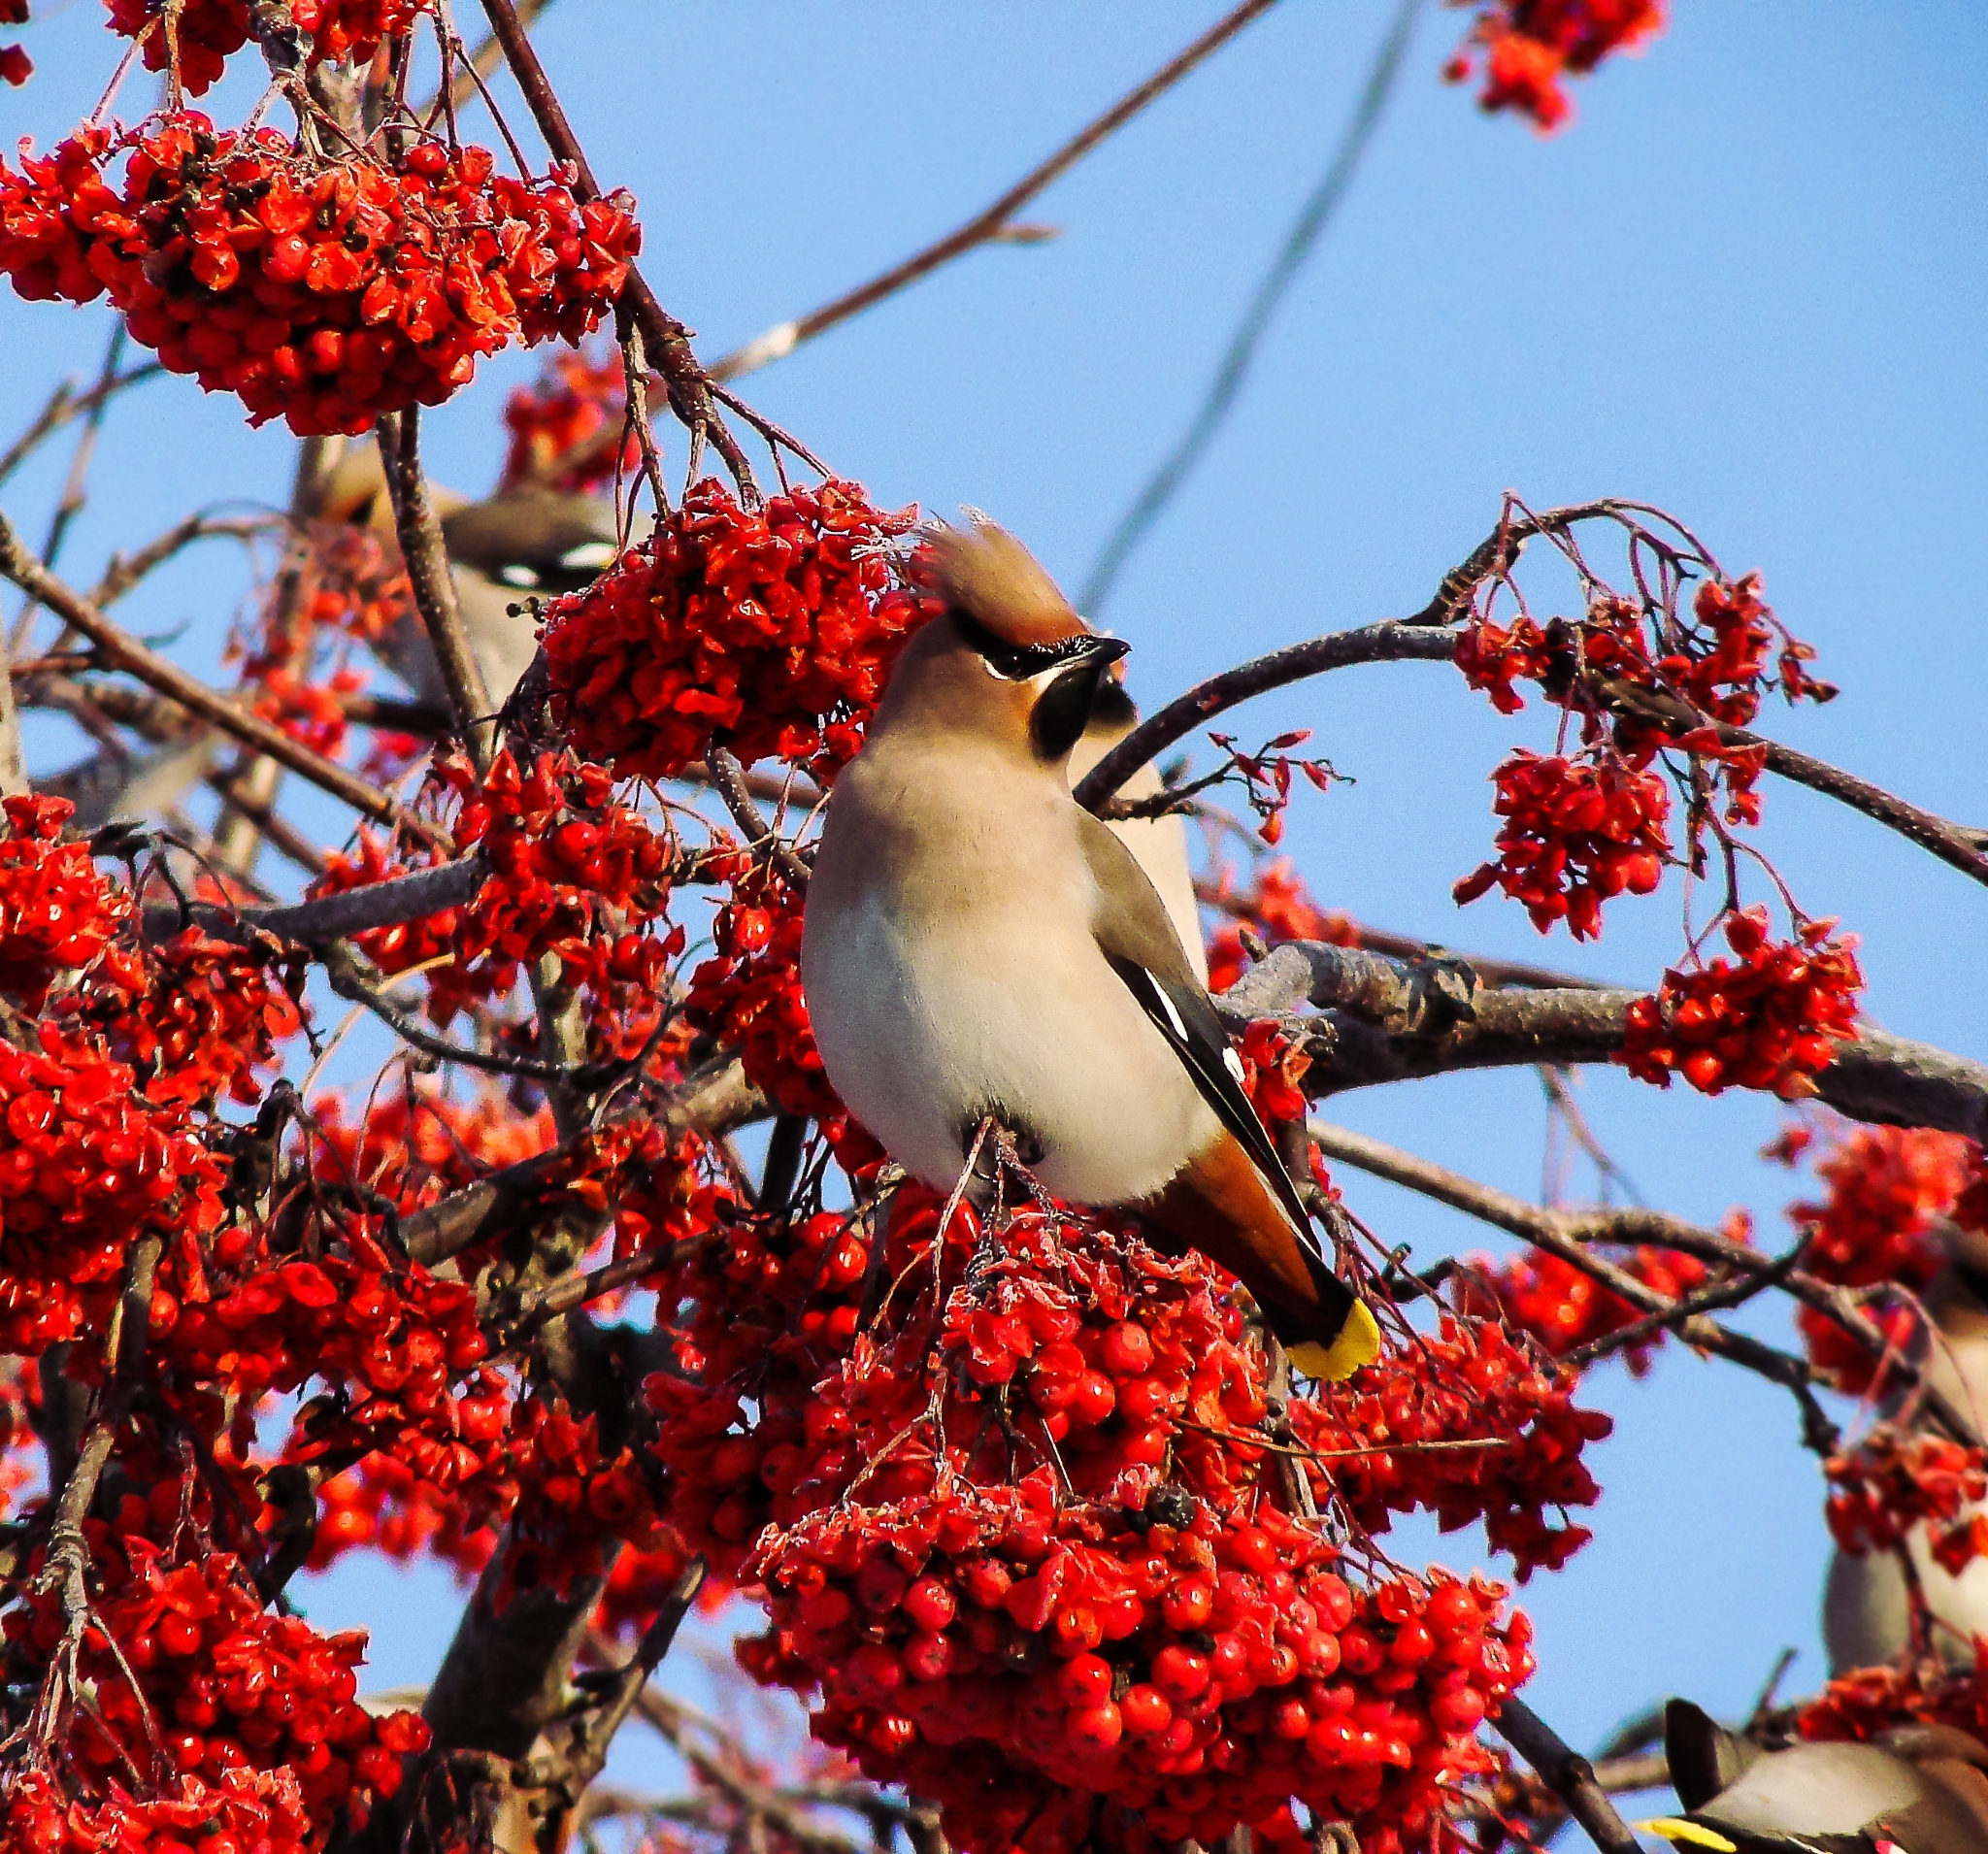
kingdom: Animalia
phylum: Chordata
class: Aves
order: Passeriformes
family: Bombycillidae
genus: Bombycilla
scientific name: Bombycilla garrulus
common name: Bohemian waxwing
